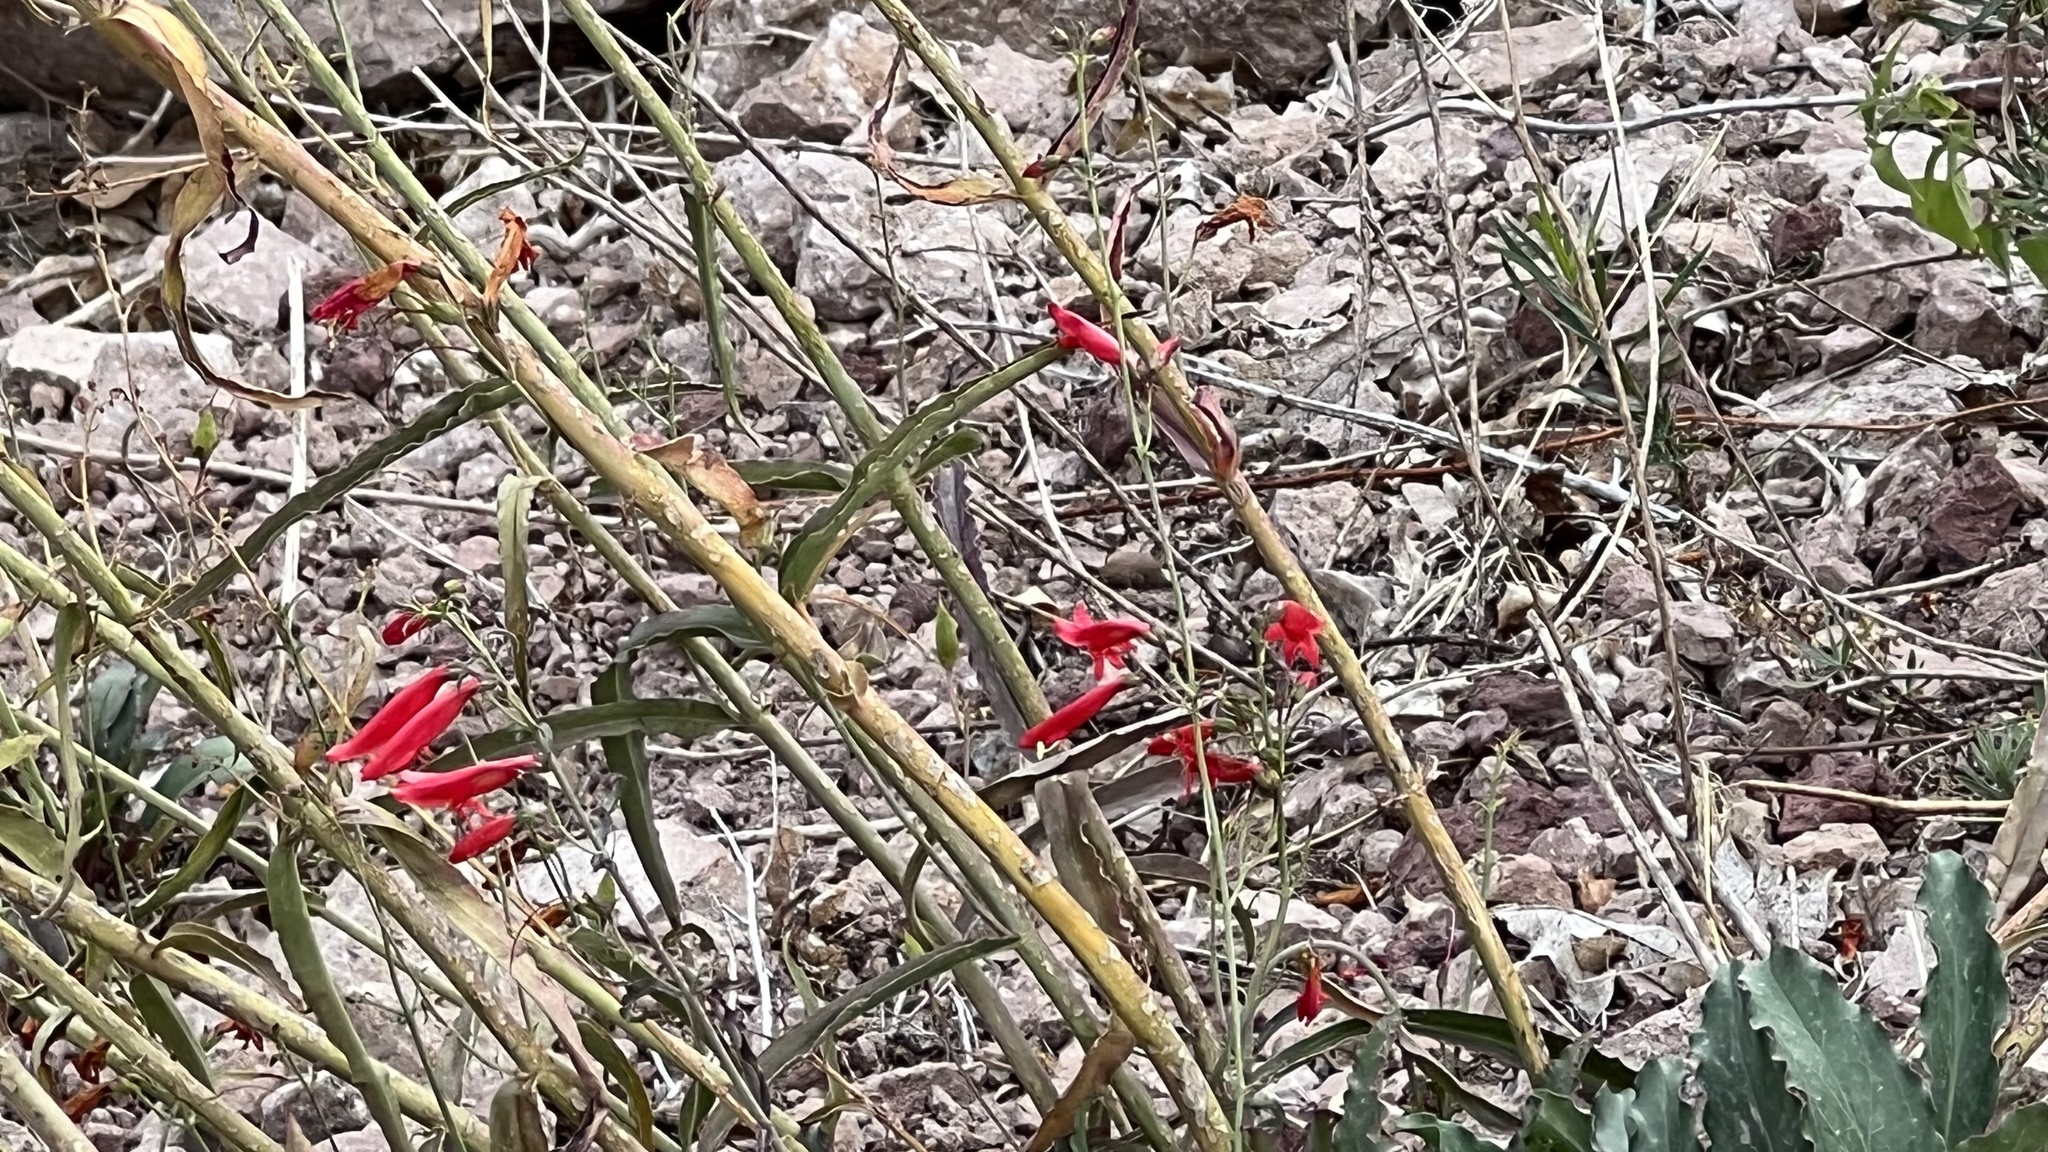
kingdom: Plantae
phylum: Tracheophyta
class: Magnoliopsida
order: Lamiales
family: Plantaginaceae
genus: Penstemon
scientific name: Penstemon barbatus
